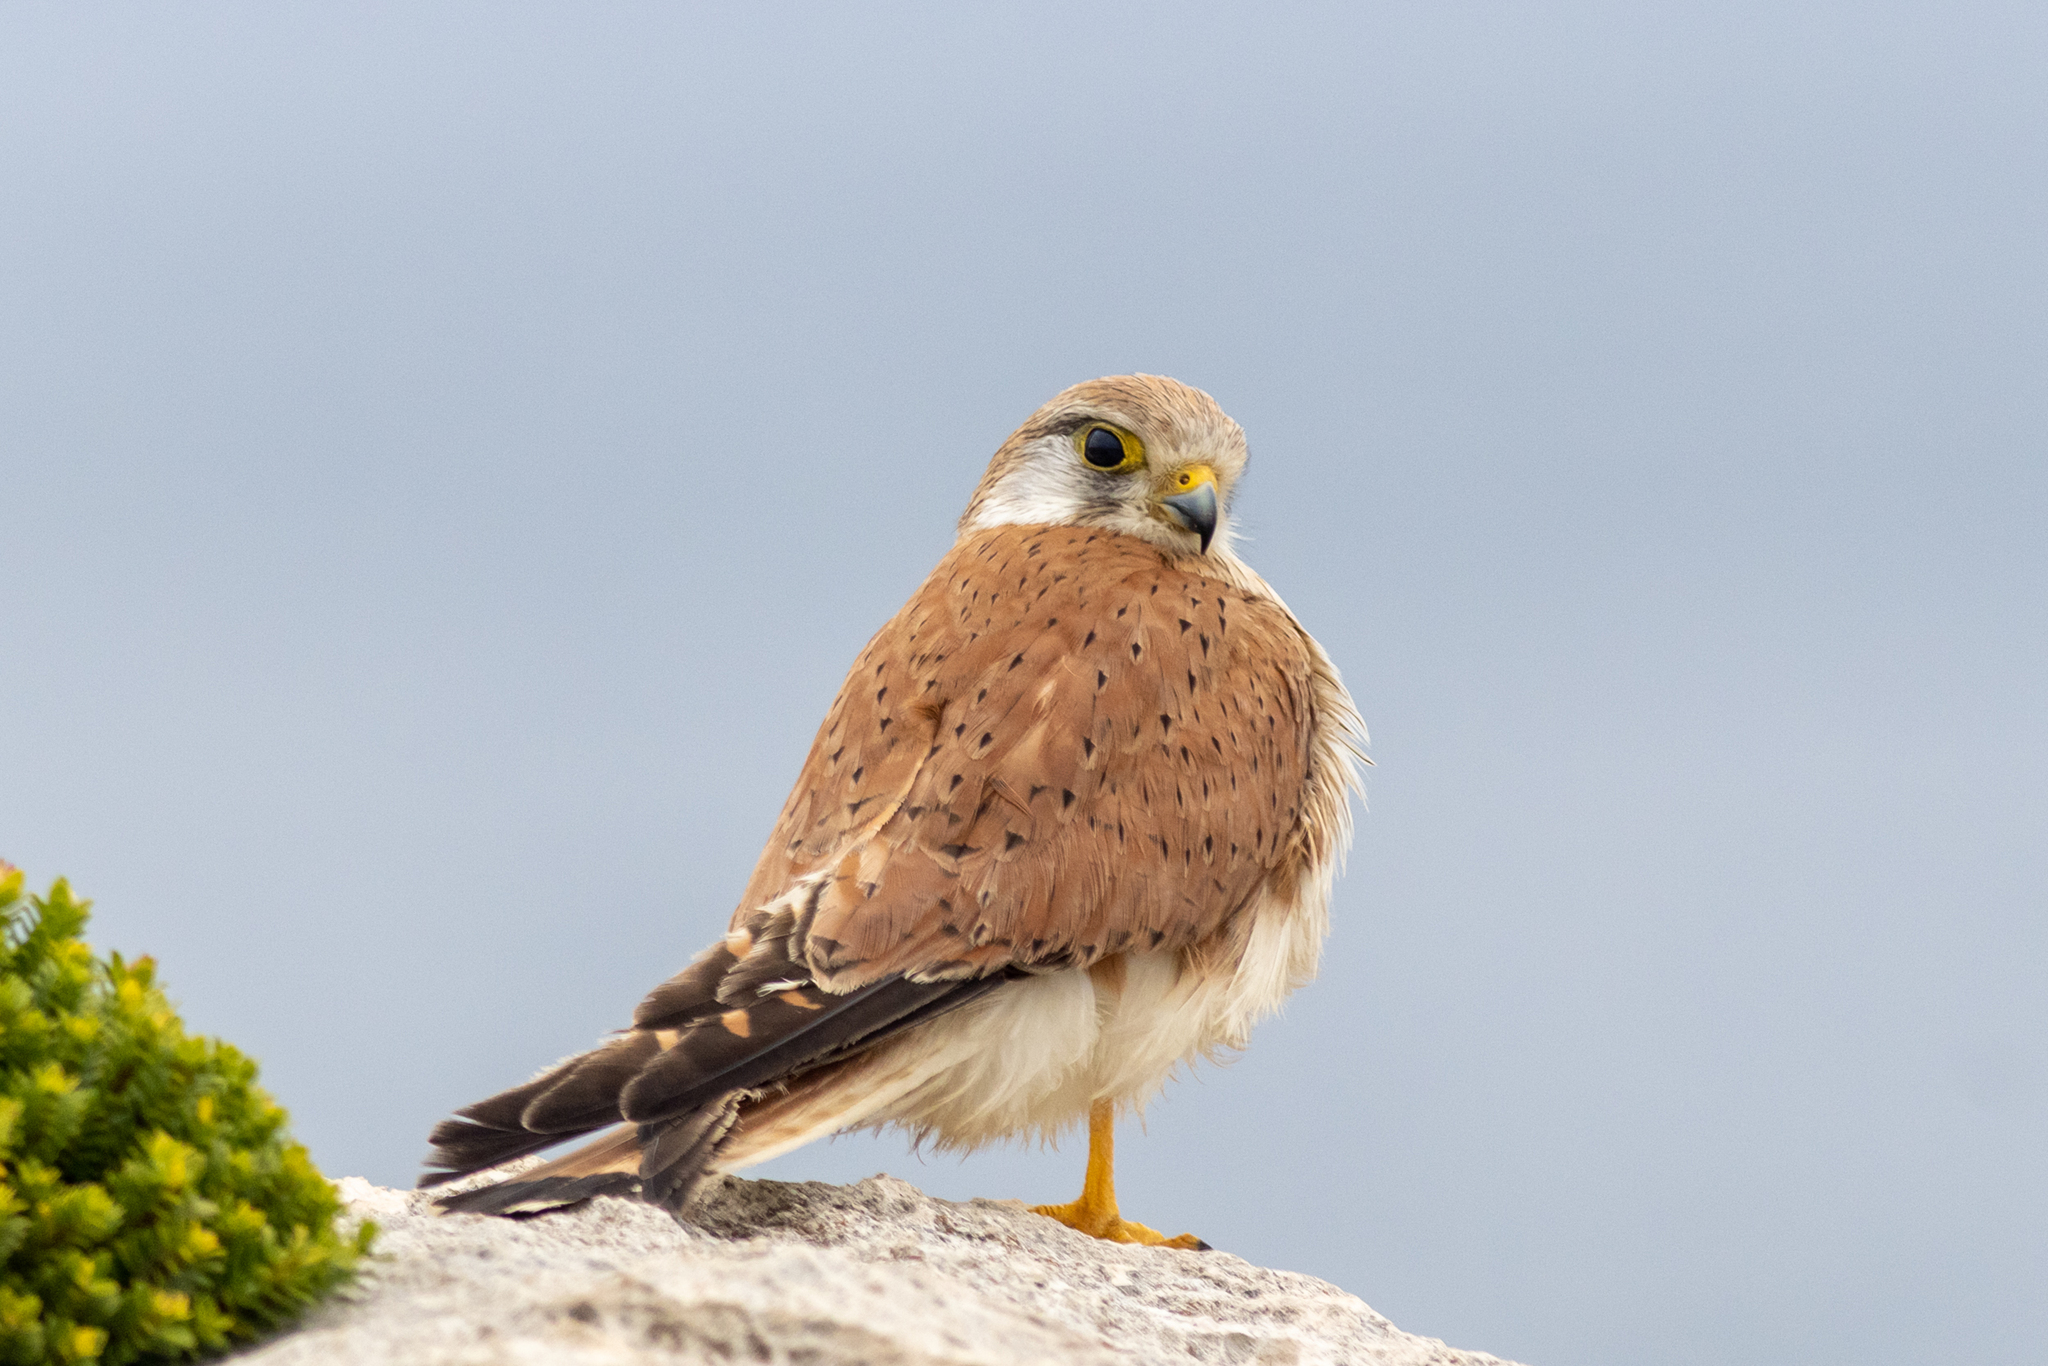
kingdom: Animalia
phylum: Chordata
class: Aves
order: Falconiformes
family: Falconidae
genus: Falco
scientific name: Falco cenchroides
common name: Nankeen kestrel
